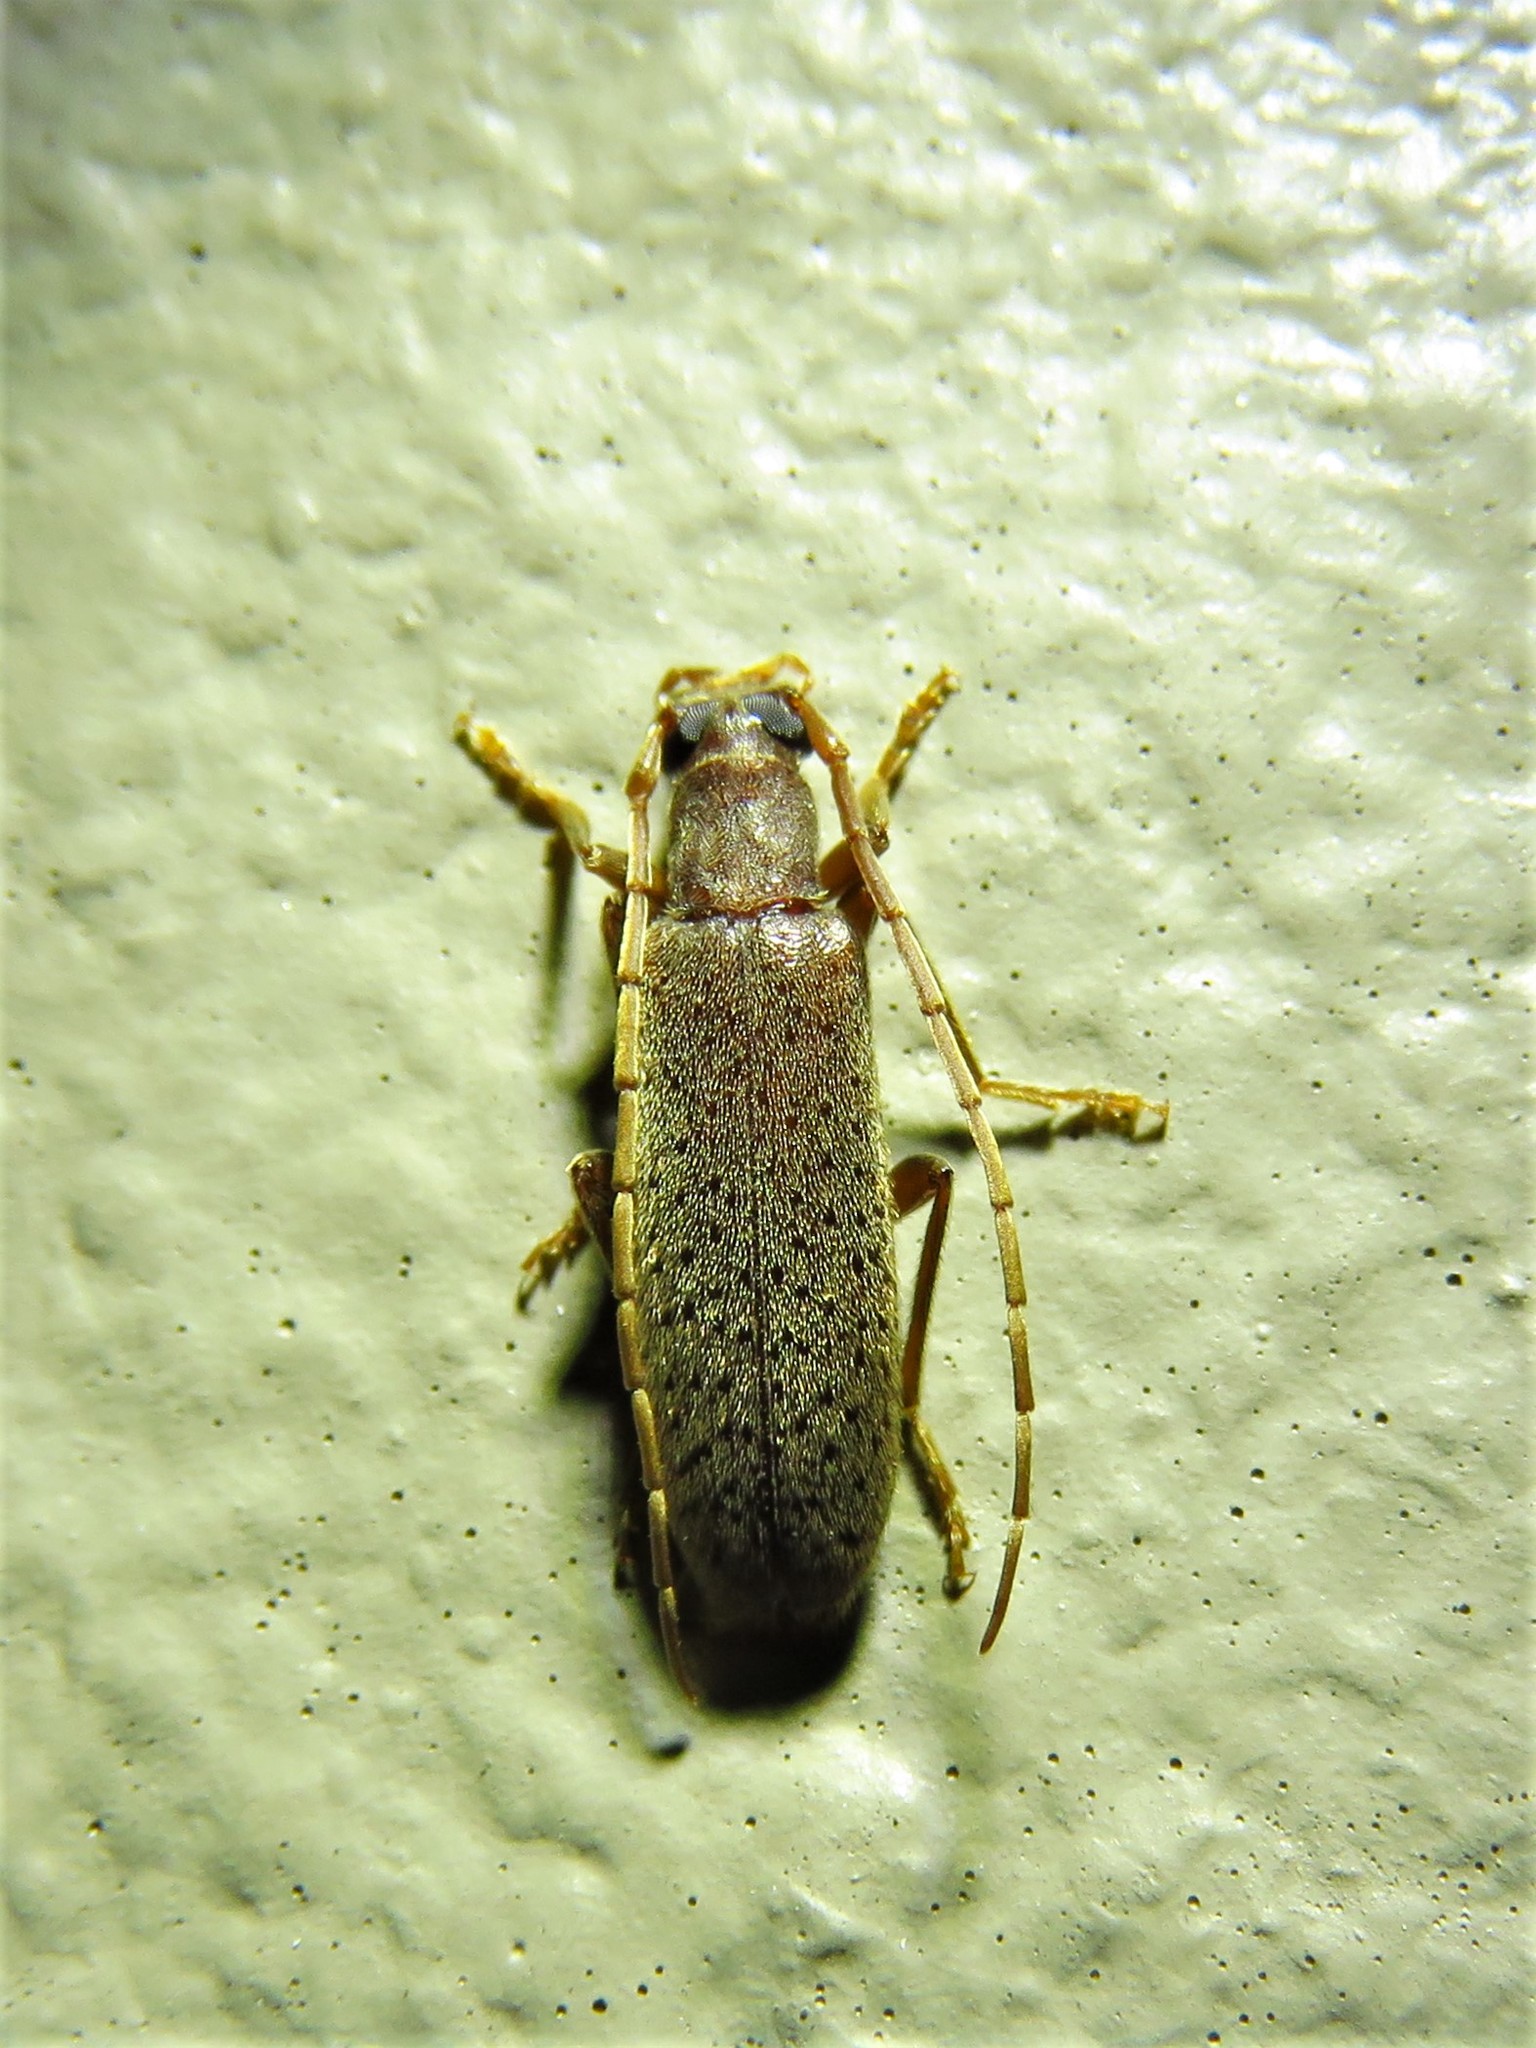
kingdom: Animalia
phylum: Arthropoda
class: Insecta
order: Coleoptera
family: Oedemeridae
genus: Sparedrus
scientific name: Sparedrus aspersus
